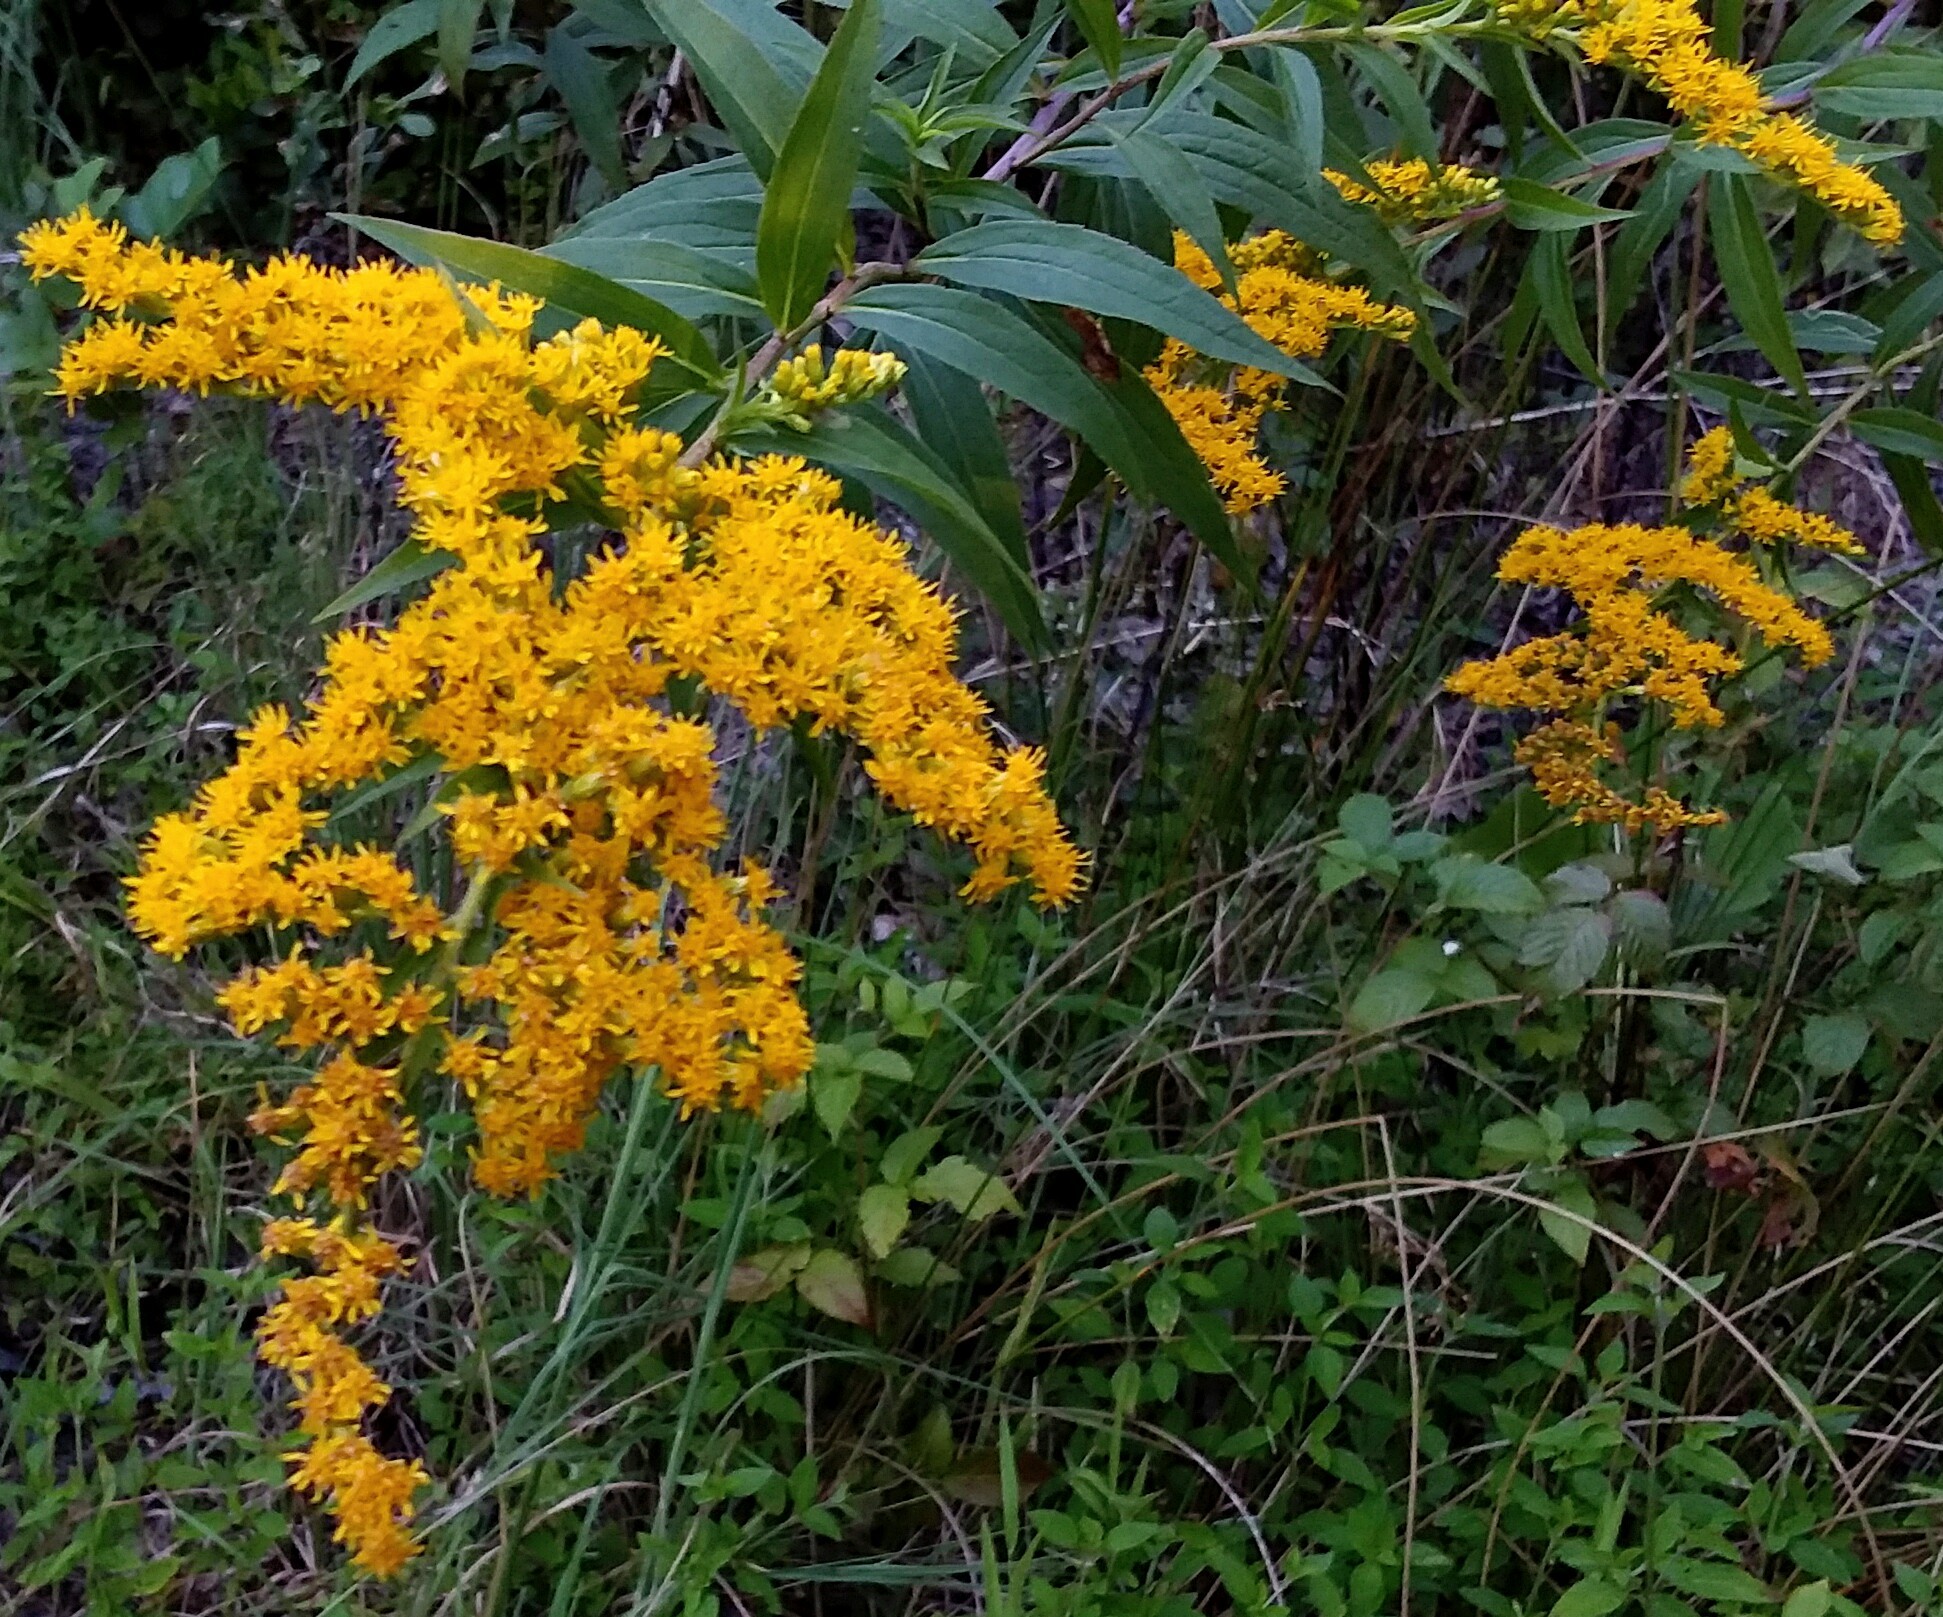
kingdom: Plantae
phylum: Tracheophyta
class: Magnoliopsida
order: Asterales
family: Asteraceae
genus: Solidago
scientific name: Solidago gigantea
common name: Giant goldenrod
